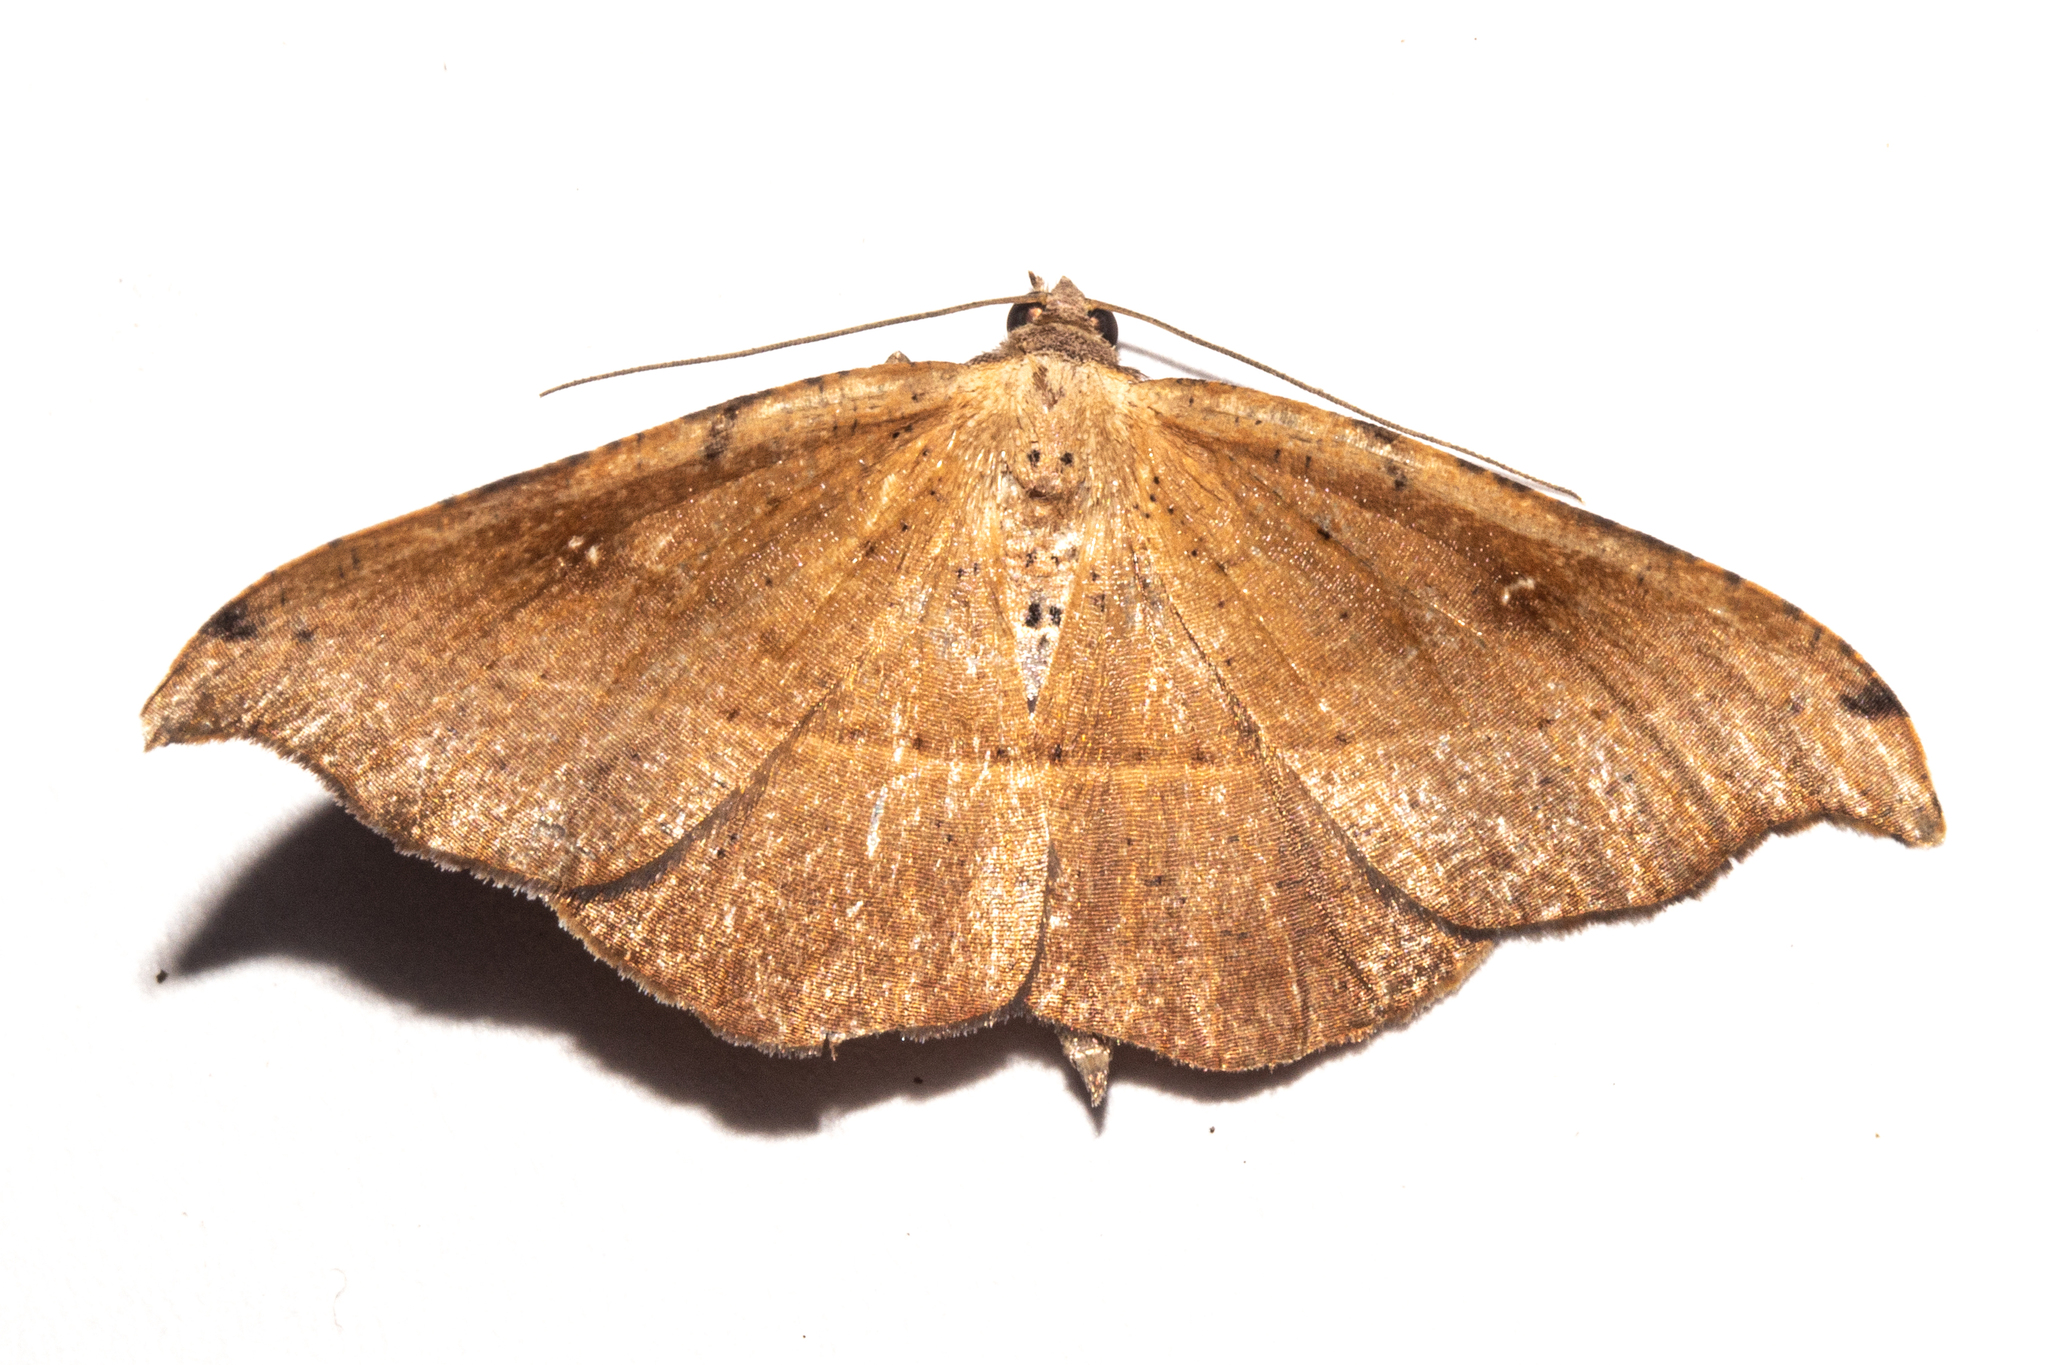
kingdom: Animalia
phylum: Arthropoda
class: Insecta
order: Lepidoptera
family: Geometridae
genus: Sarisa
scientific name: Sarisa muriferata
